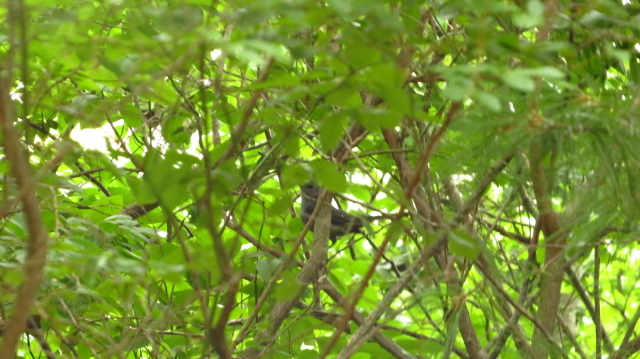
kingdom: Animalia
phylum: Chordata
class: Aves
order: Passeriformes
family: Mimidae
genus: Dumetella
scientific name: Dumetella carolinensis
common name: Gray catbird
